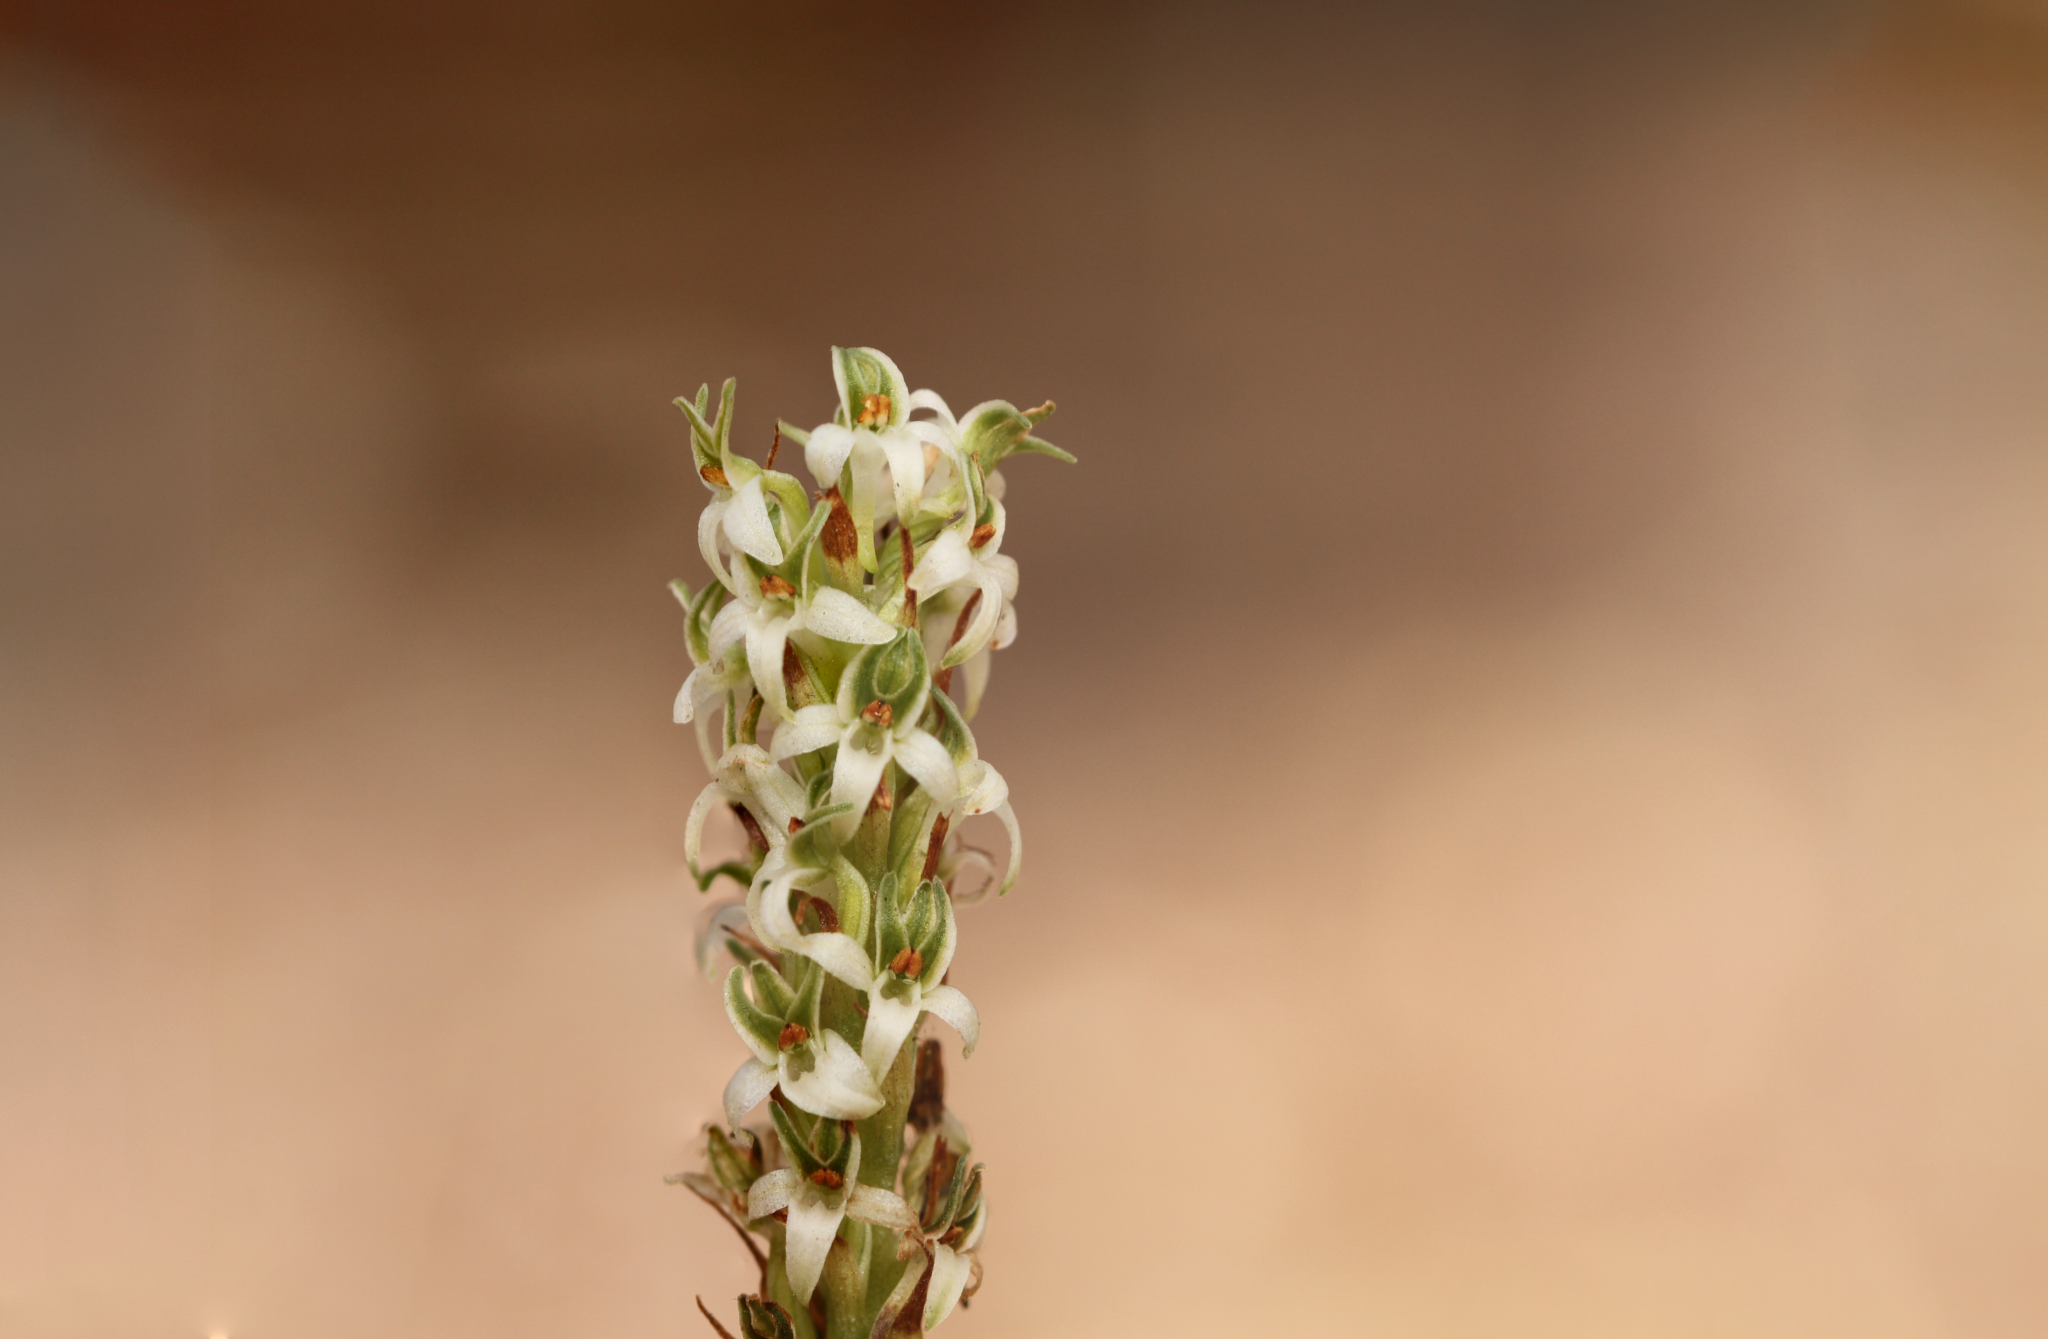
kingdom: Plantae
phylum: Tracheophyta
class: Liliopsida
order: Asparagales
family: Orchidaceae
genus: Platanthera
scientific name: Platanthera yadonii
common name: Yadon’s piperia
